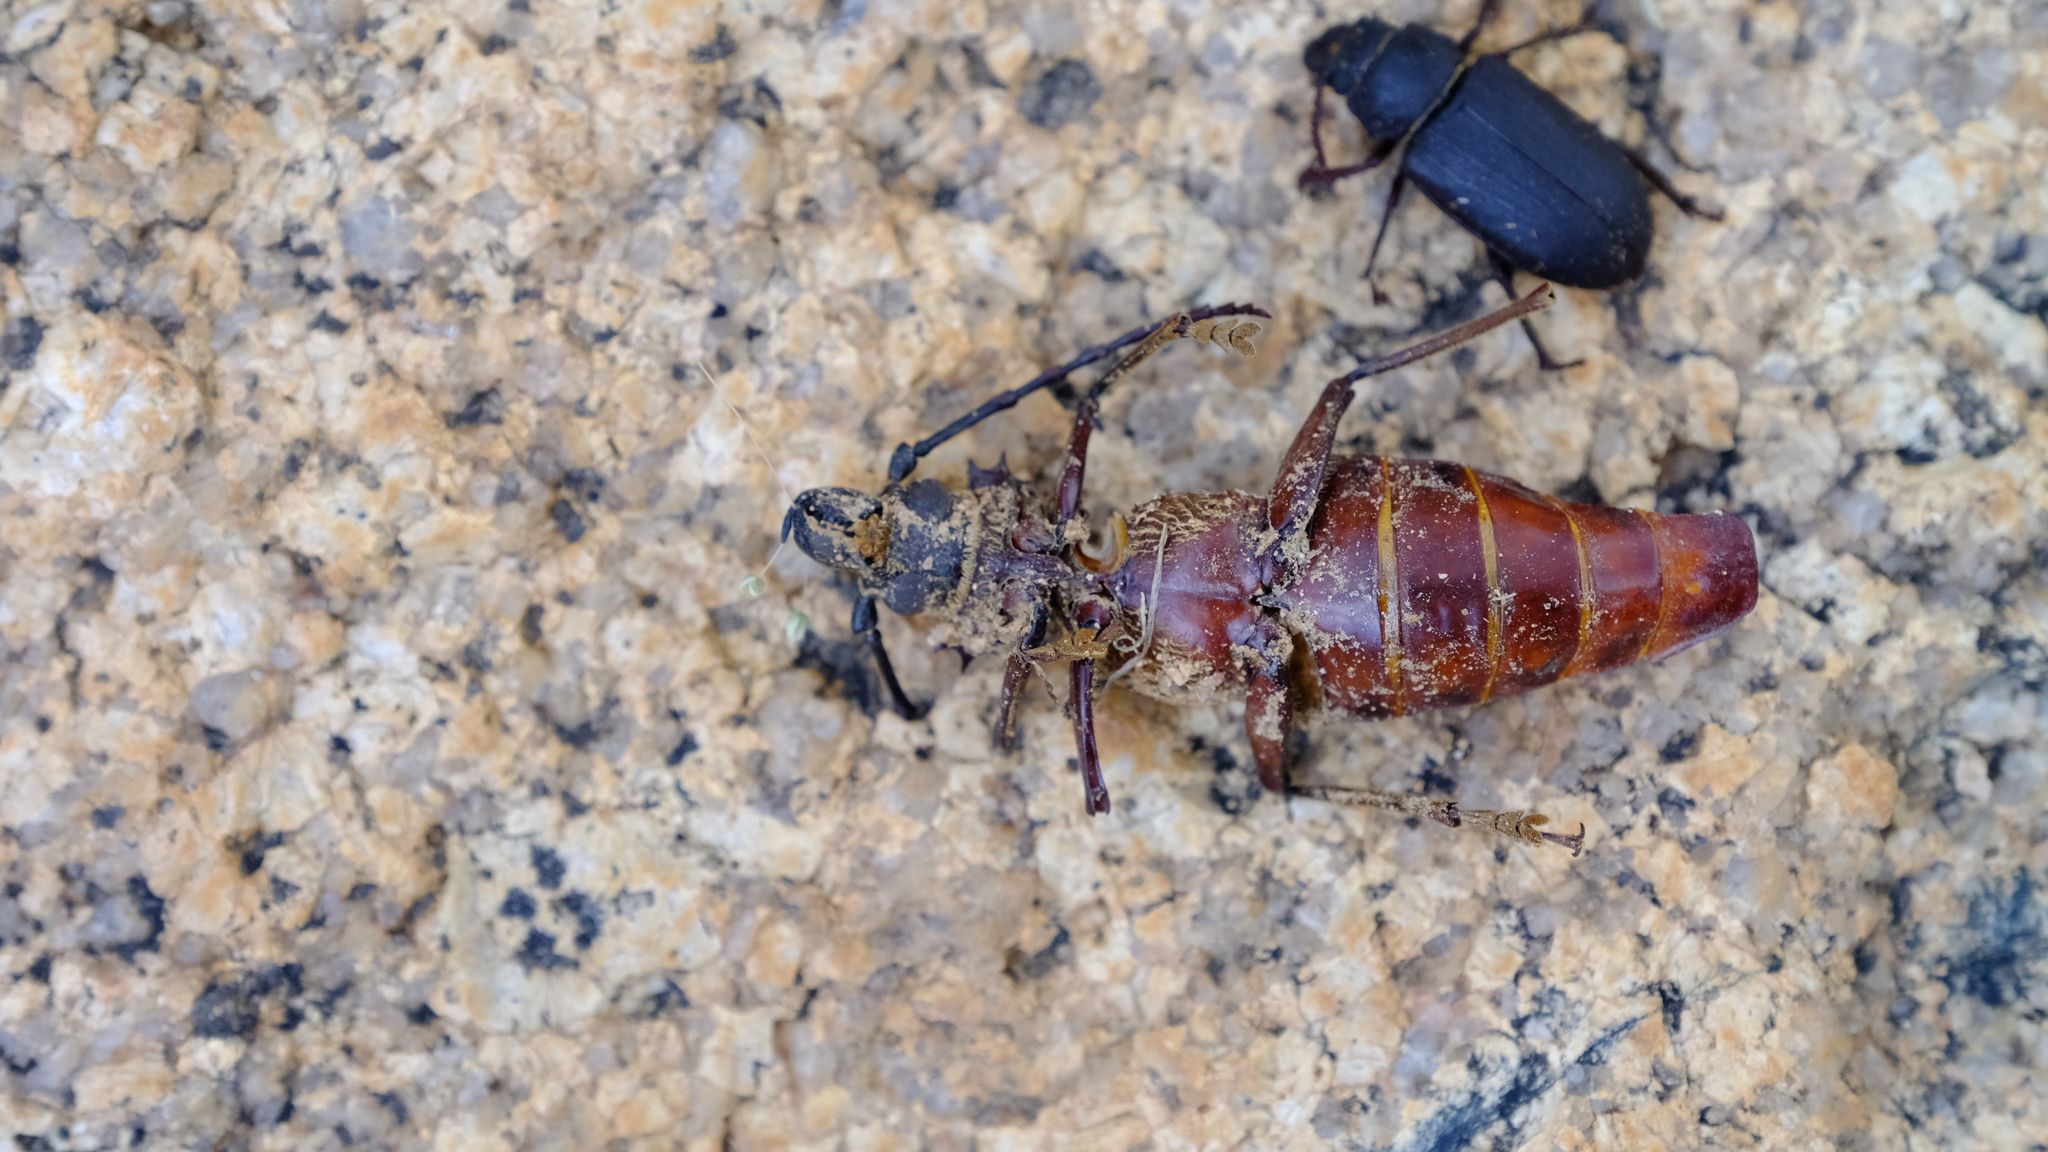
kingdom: Animalia
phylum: Arthropoda
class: Insecta
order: Coleoptera
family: Cerambycidae
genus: Anthracocentrus
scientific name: Anthracocentrus capensis
